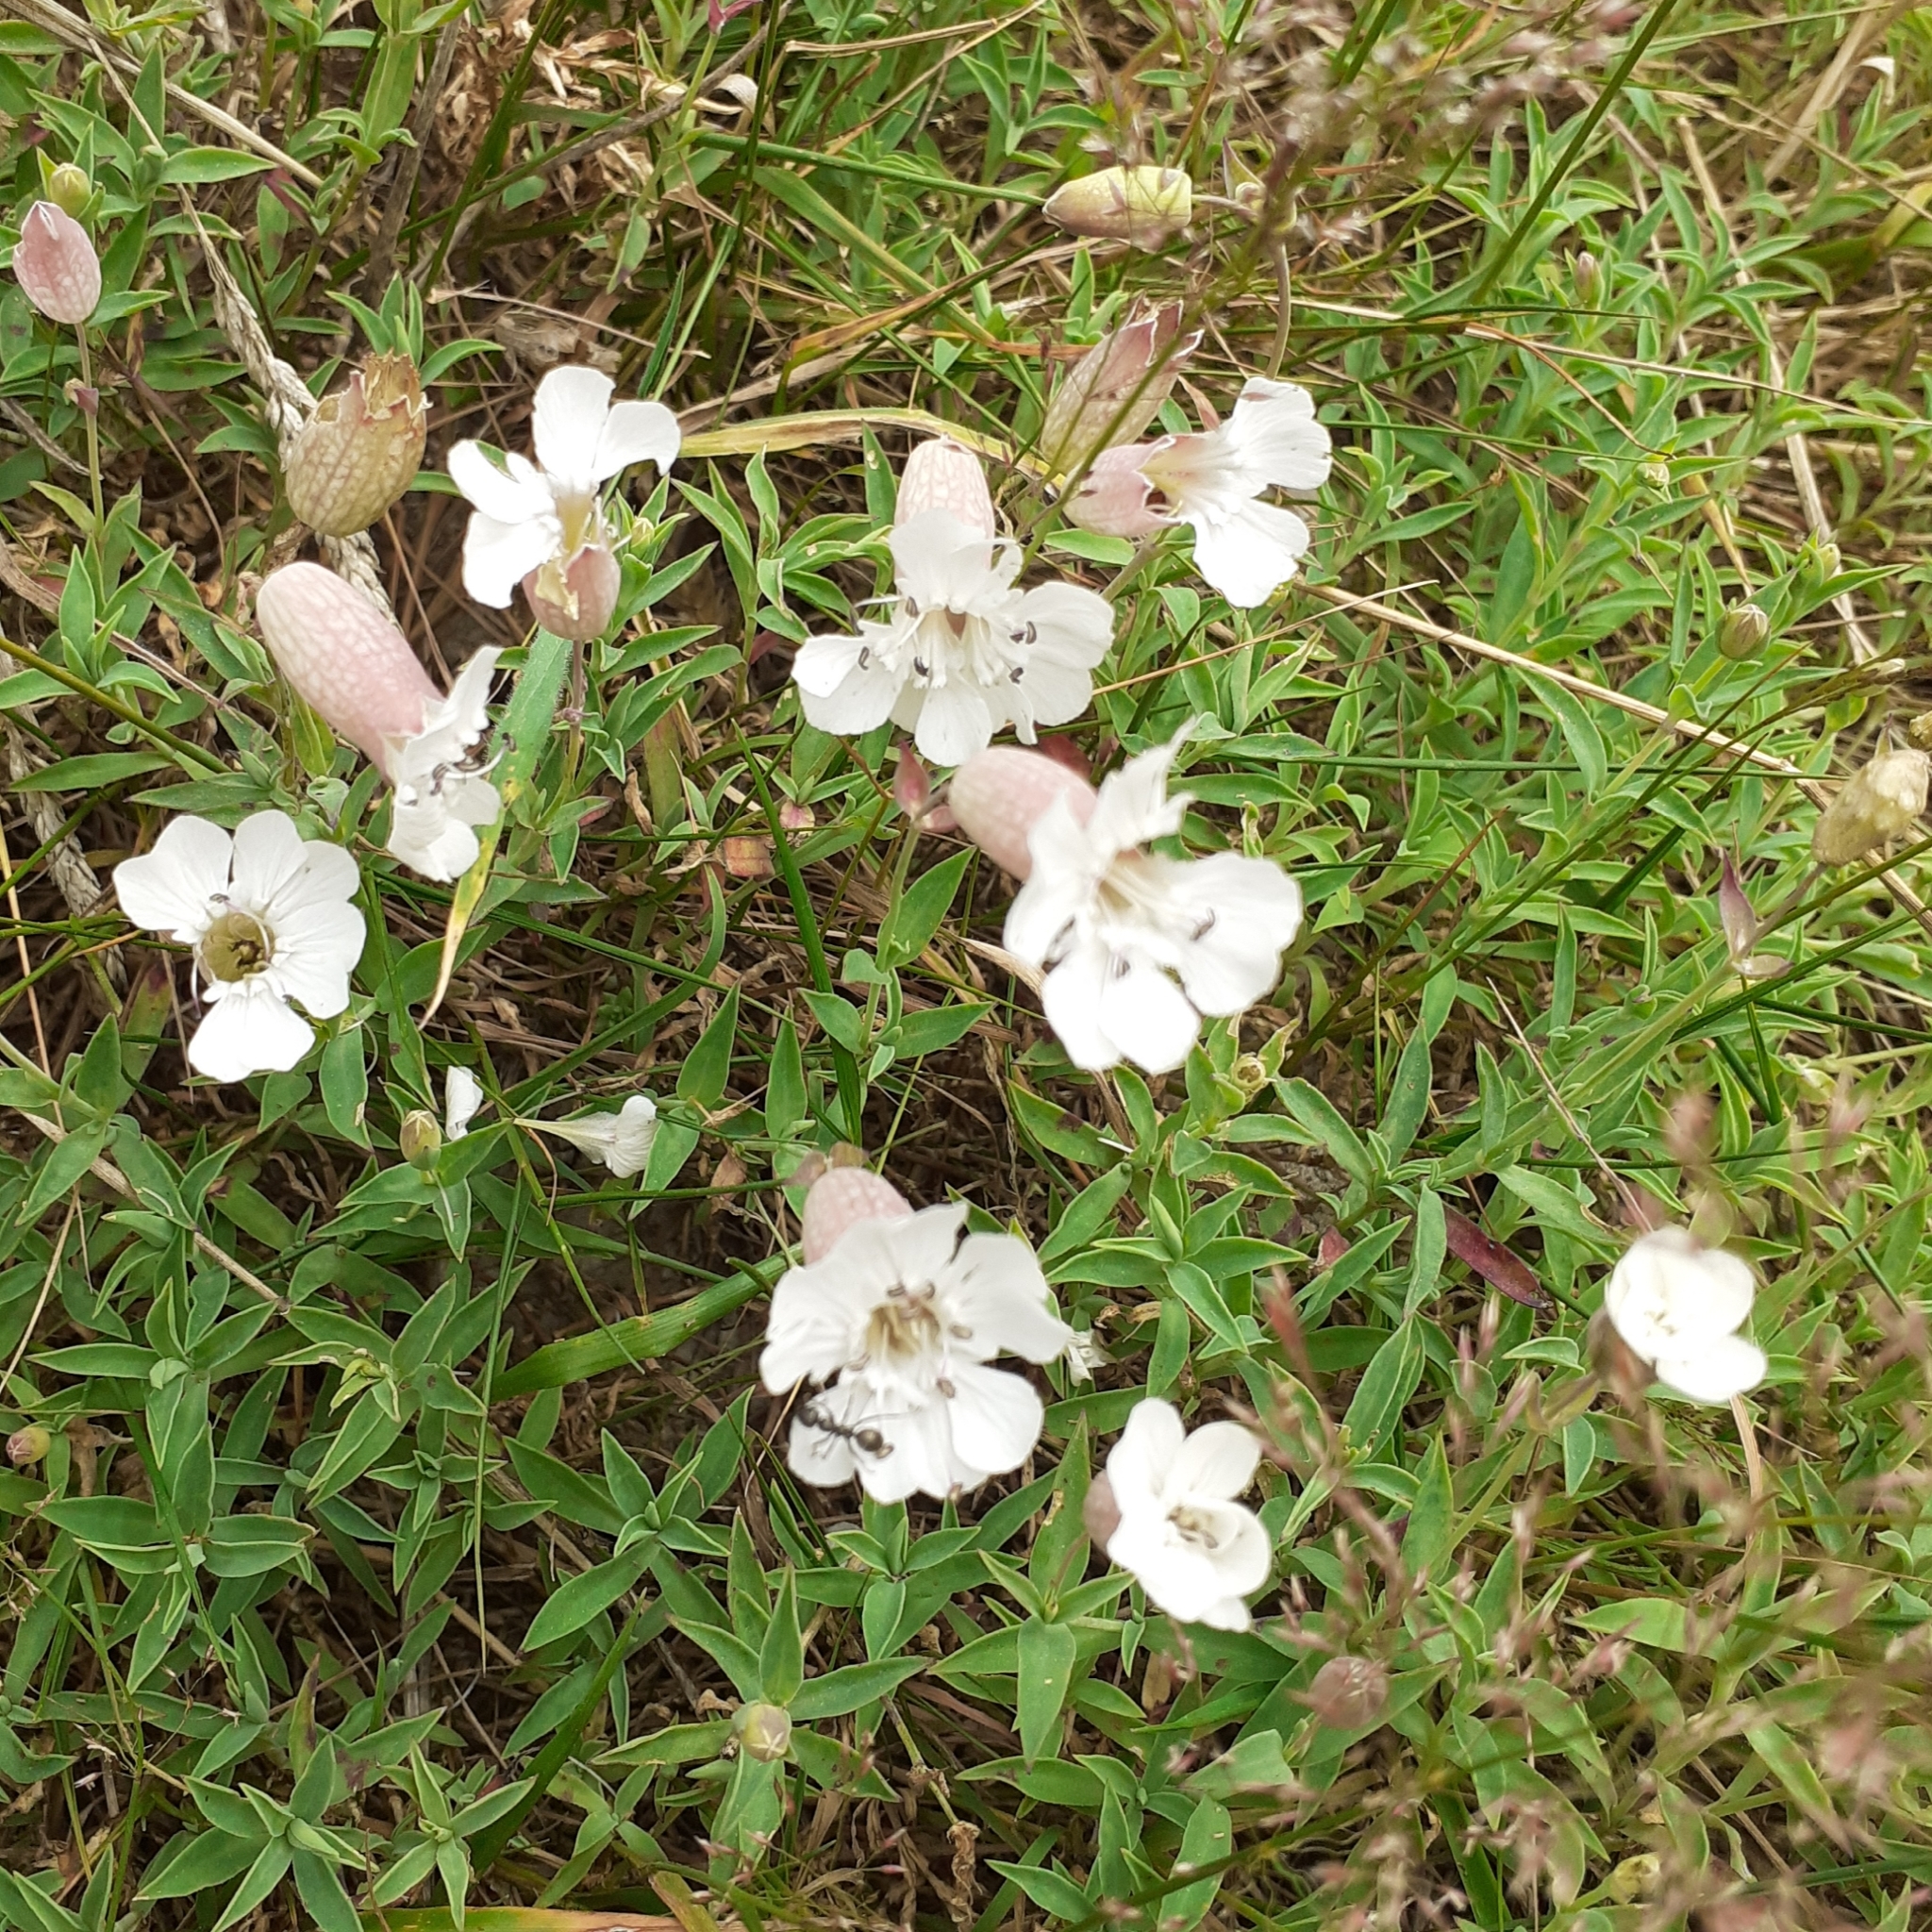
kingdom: Plantae
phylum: Tracheophyta
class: Magnoliopsida
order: Caryophyllales
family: Caryophyllaceae
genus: Silene
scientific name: Silene uniflora
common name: Sea campion
